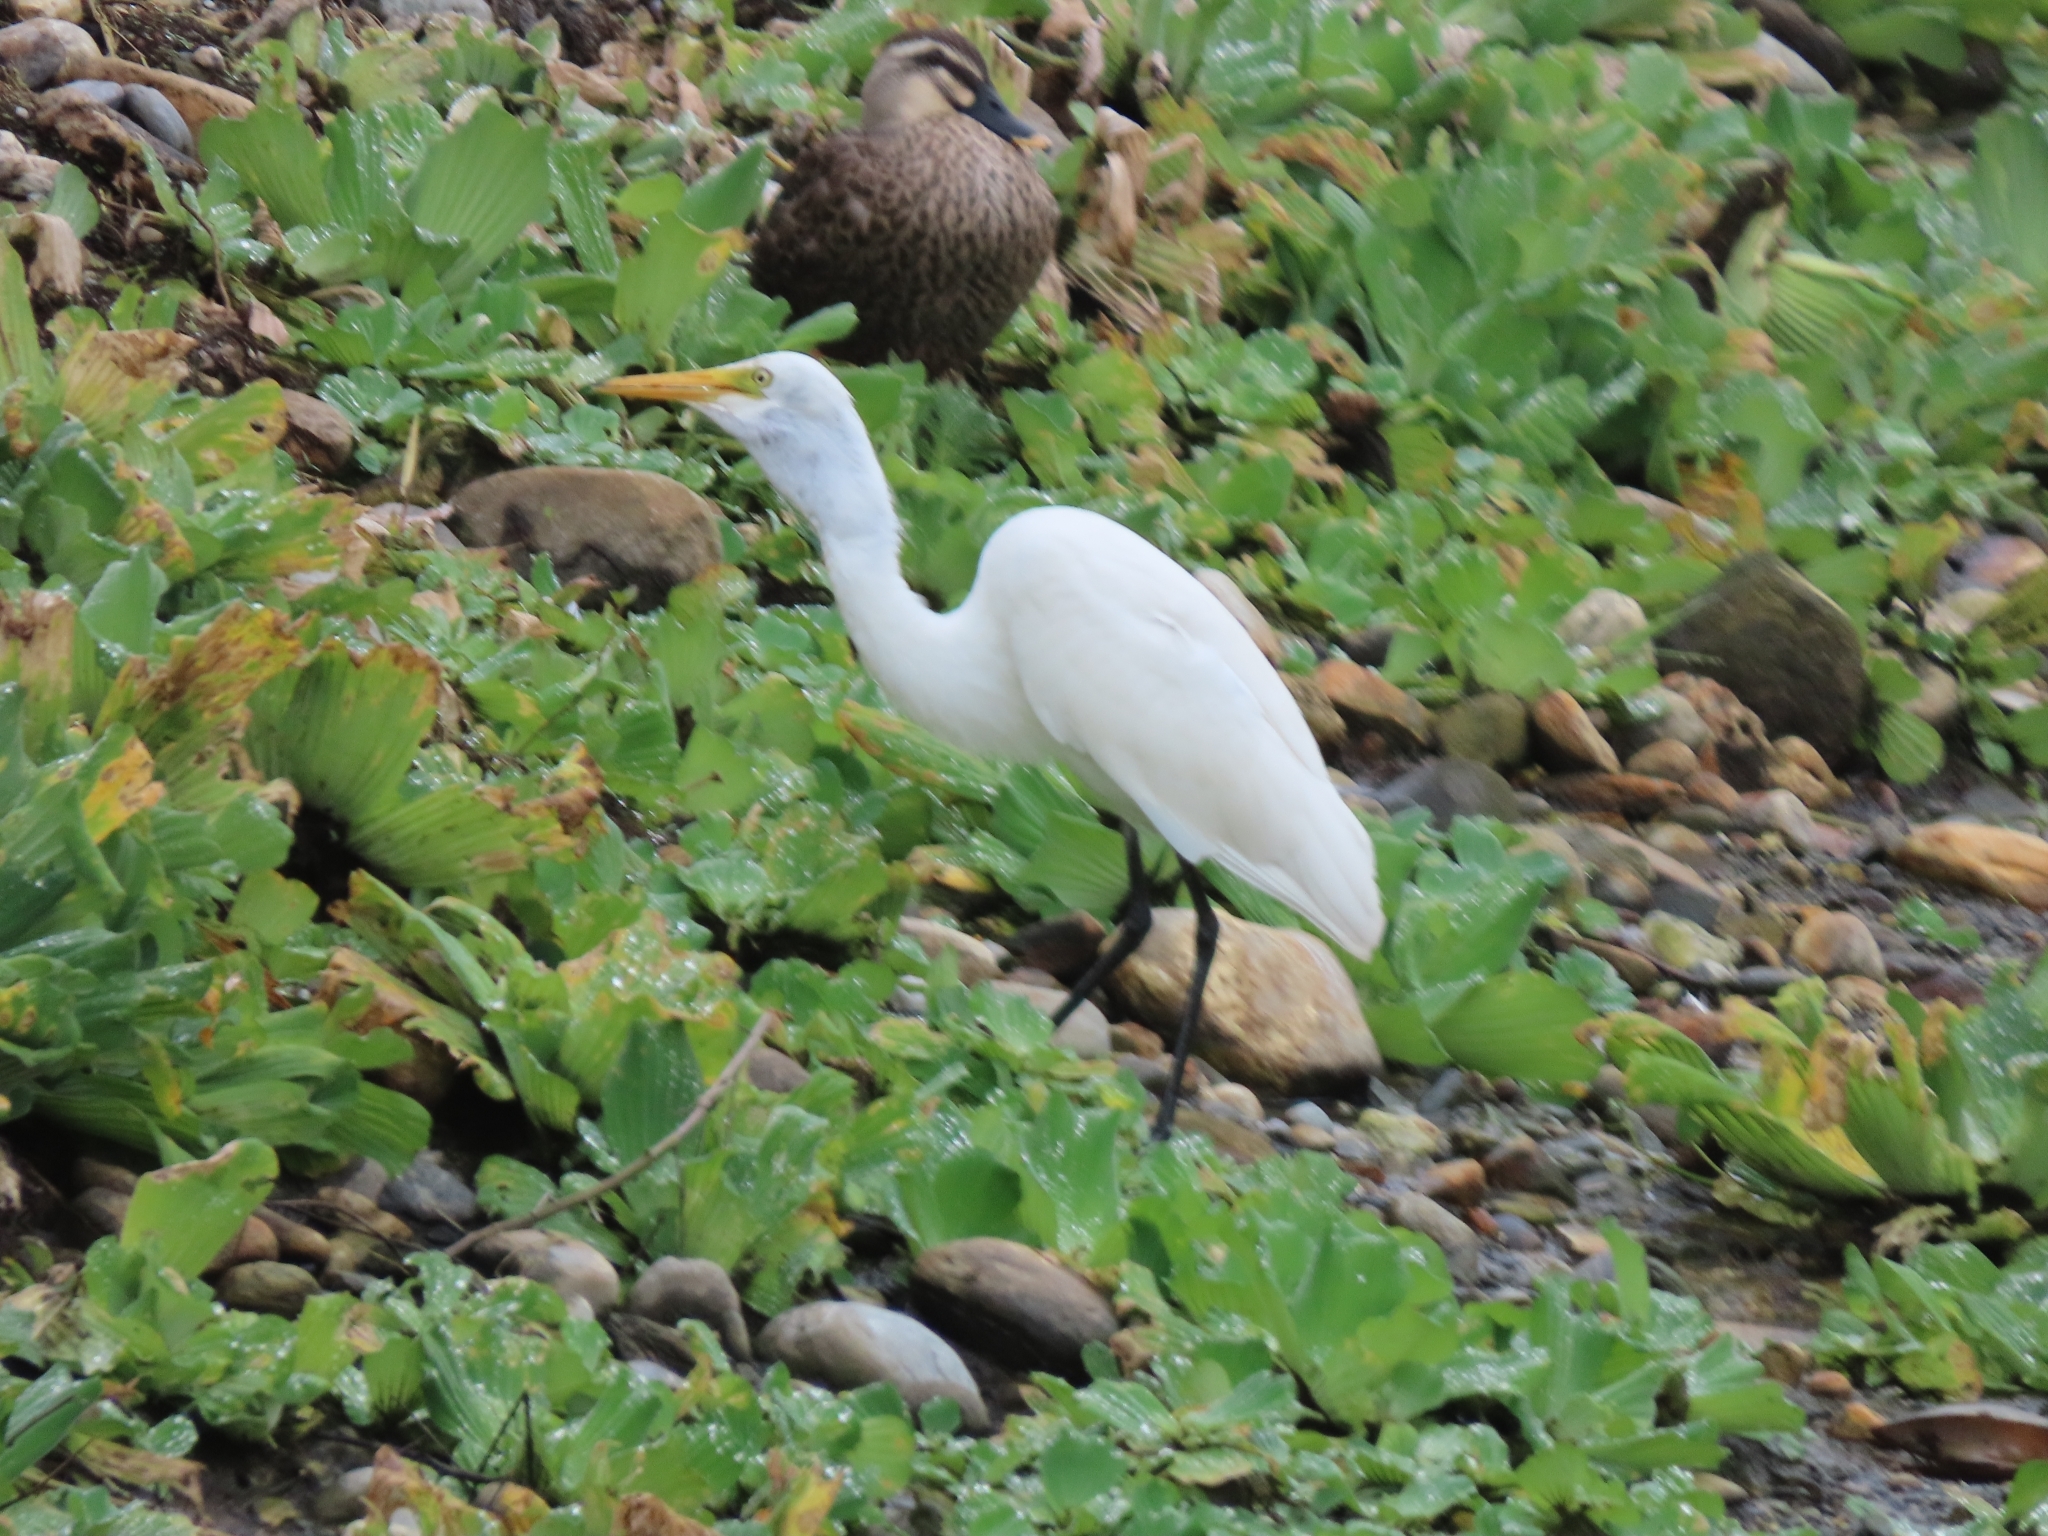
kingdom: Animalia
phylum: Chordata
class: Aves
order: Pelecaniformes
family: Ardeidae
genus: Egretta
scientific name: Egretta intermedia
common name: Intermediate egret
